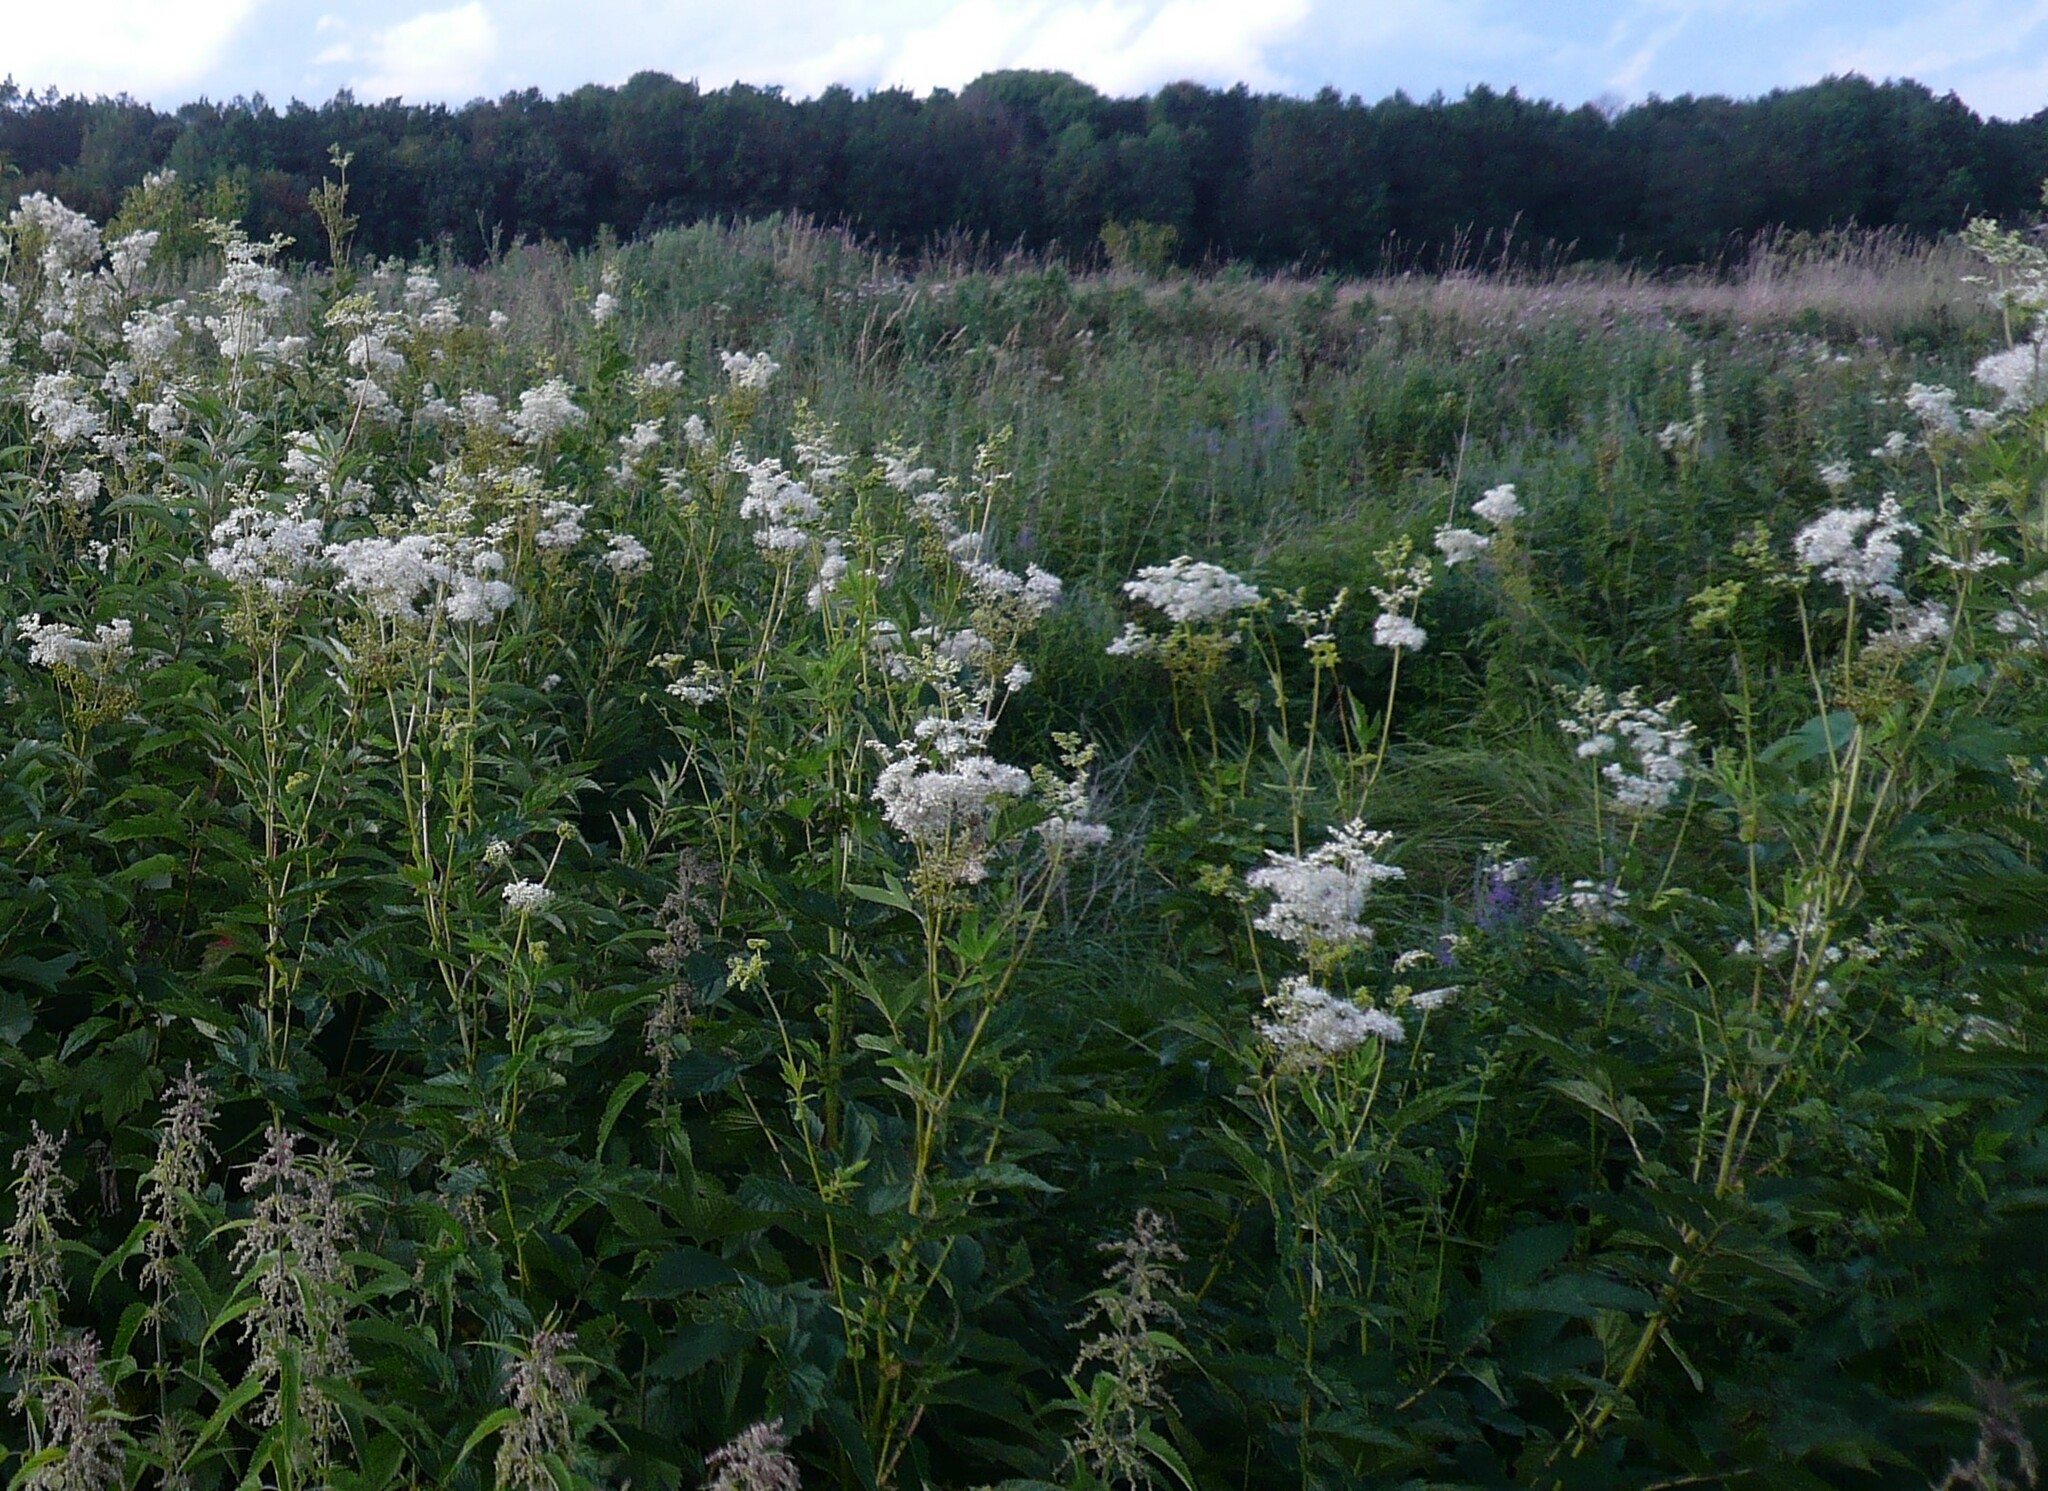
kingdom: Plantae
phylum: Tracheophyta
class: Magnoliopsida
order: Rosales
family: Rosaceae
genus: Filipendula
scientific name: Filipendula ulmaria
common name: Meadowsweet
